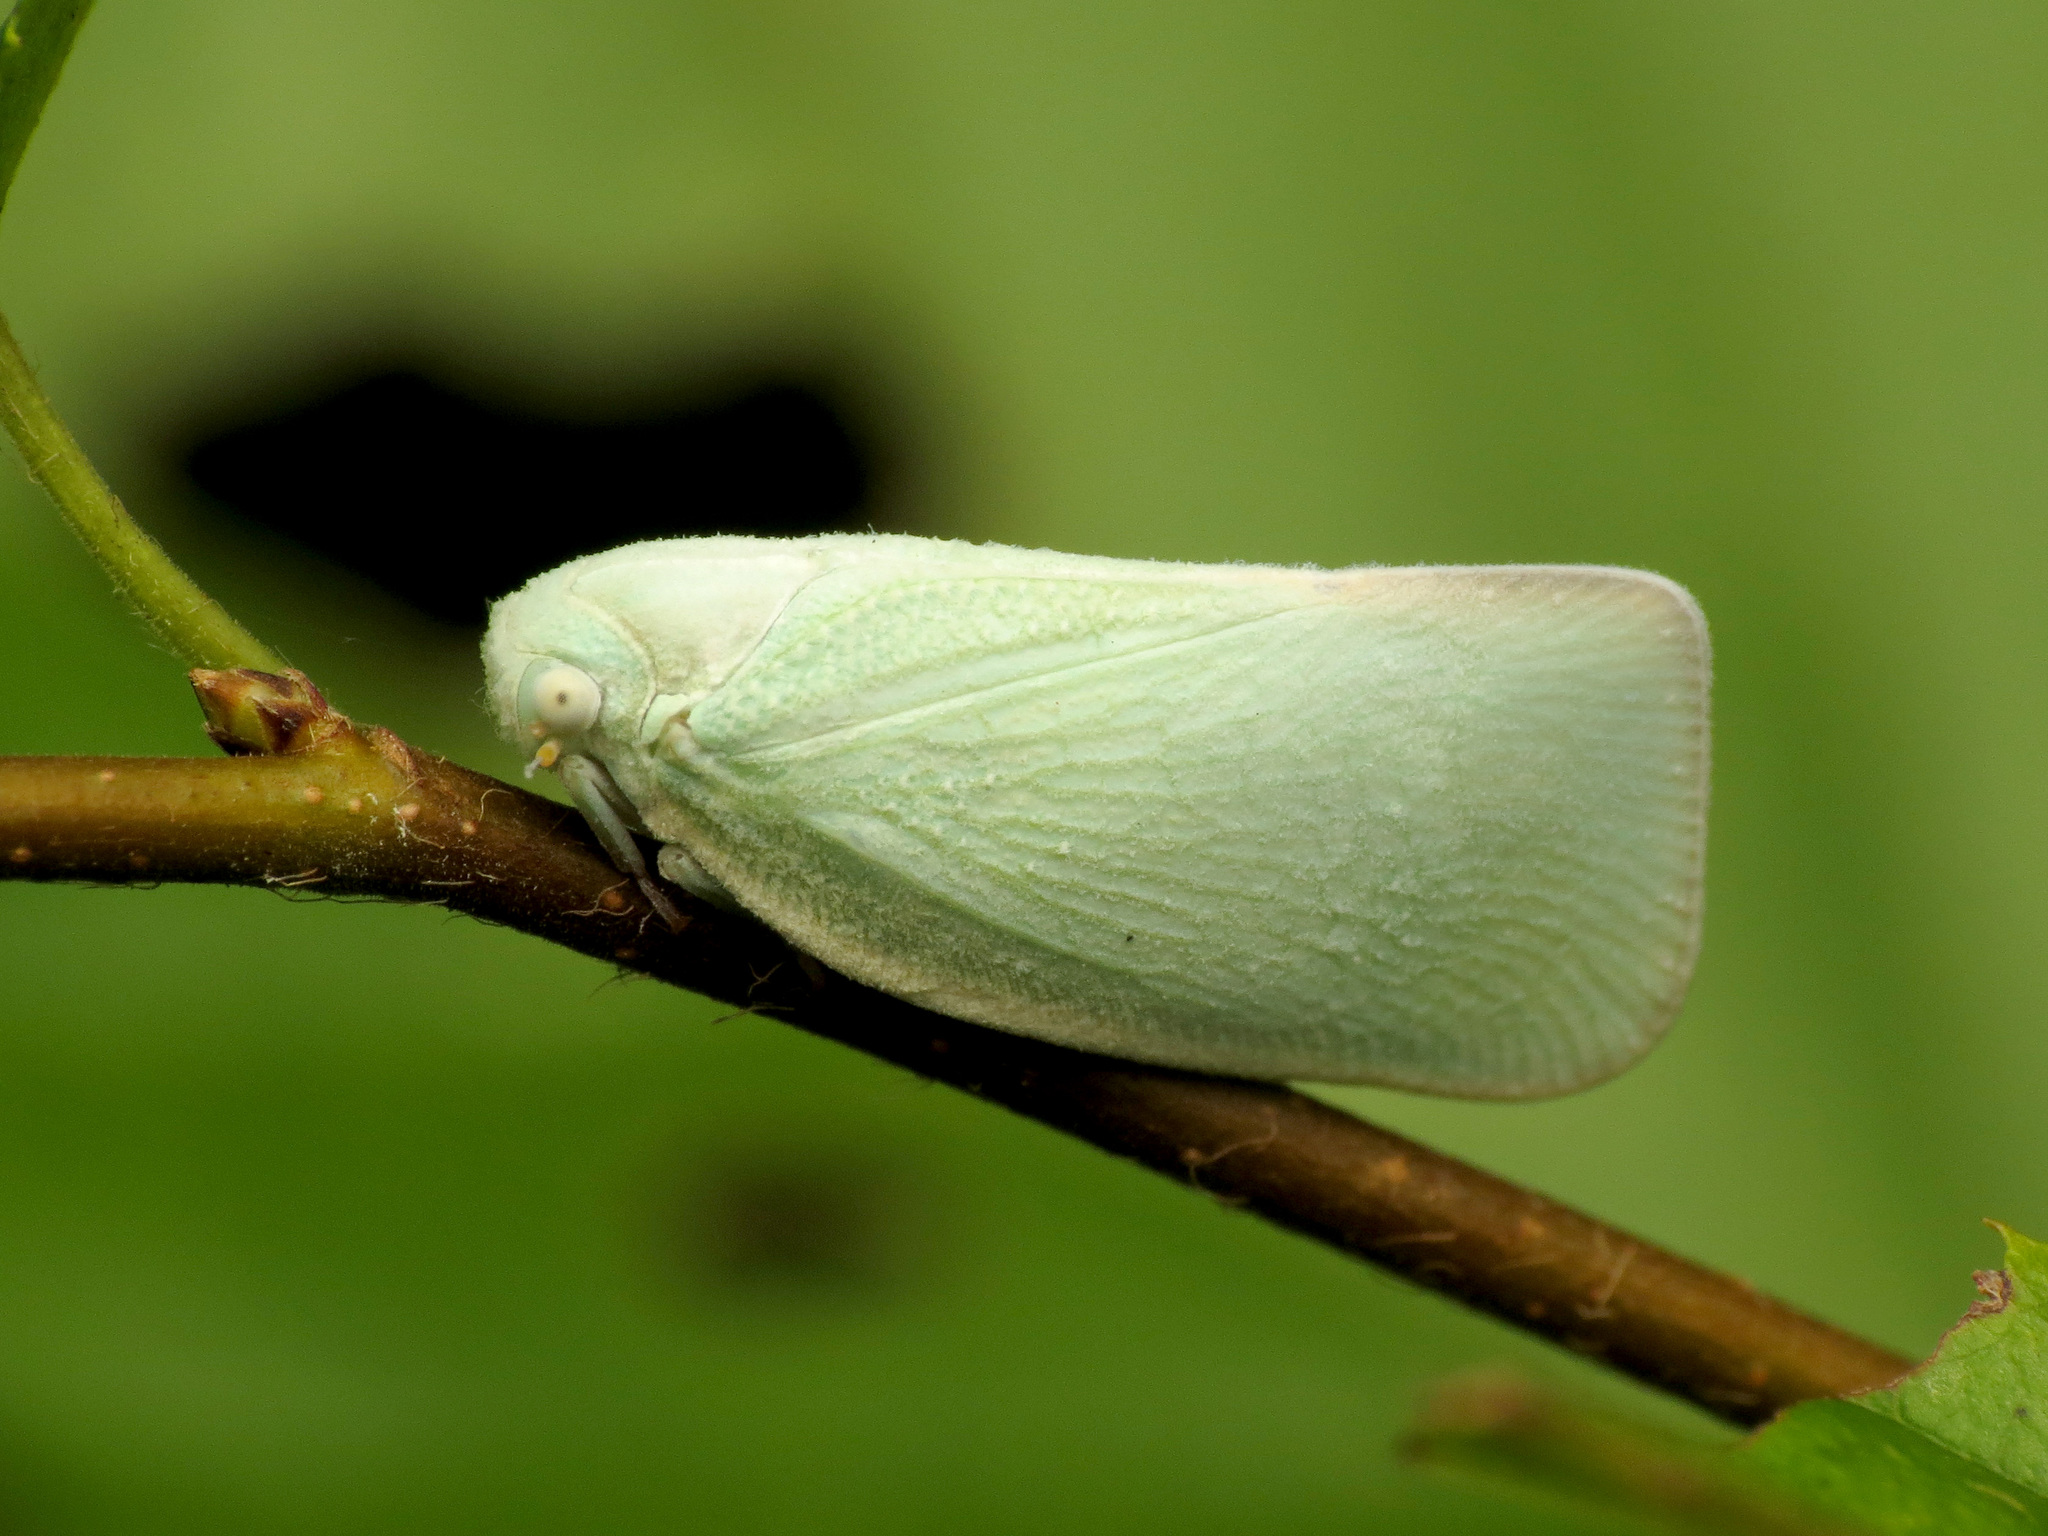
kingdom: Animalia
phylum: Arthropoda
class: Insecta
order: Hemiptera
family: Flatidae
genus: Flatormenis
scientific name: Flatormenis proxima
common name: Northern flatid planthopper
